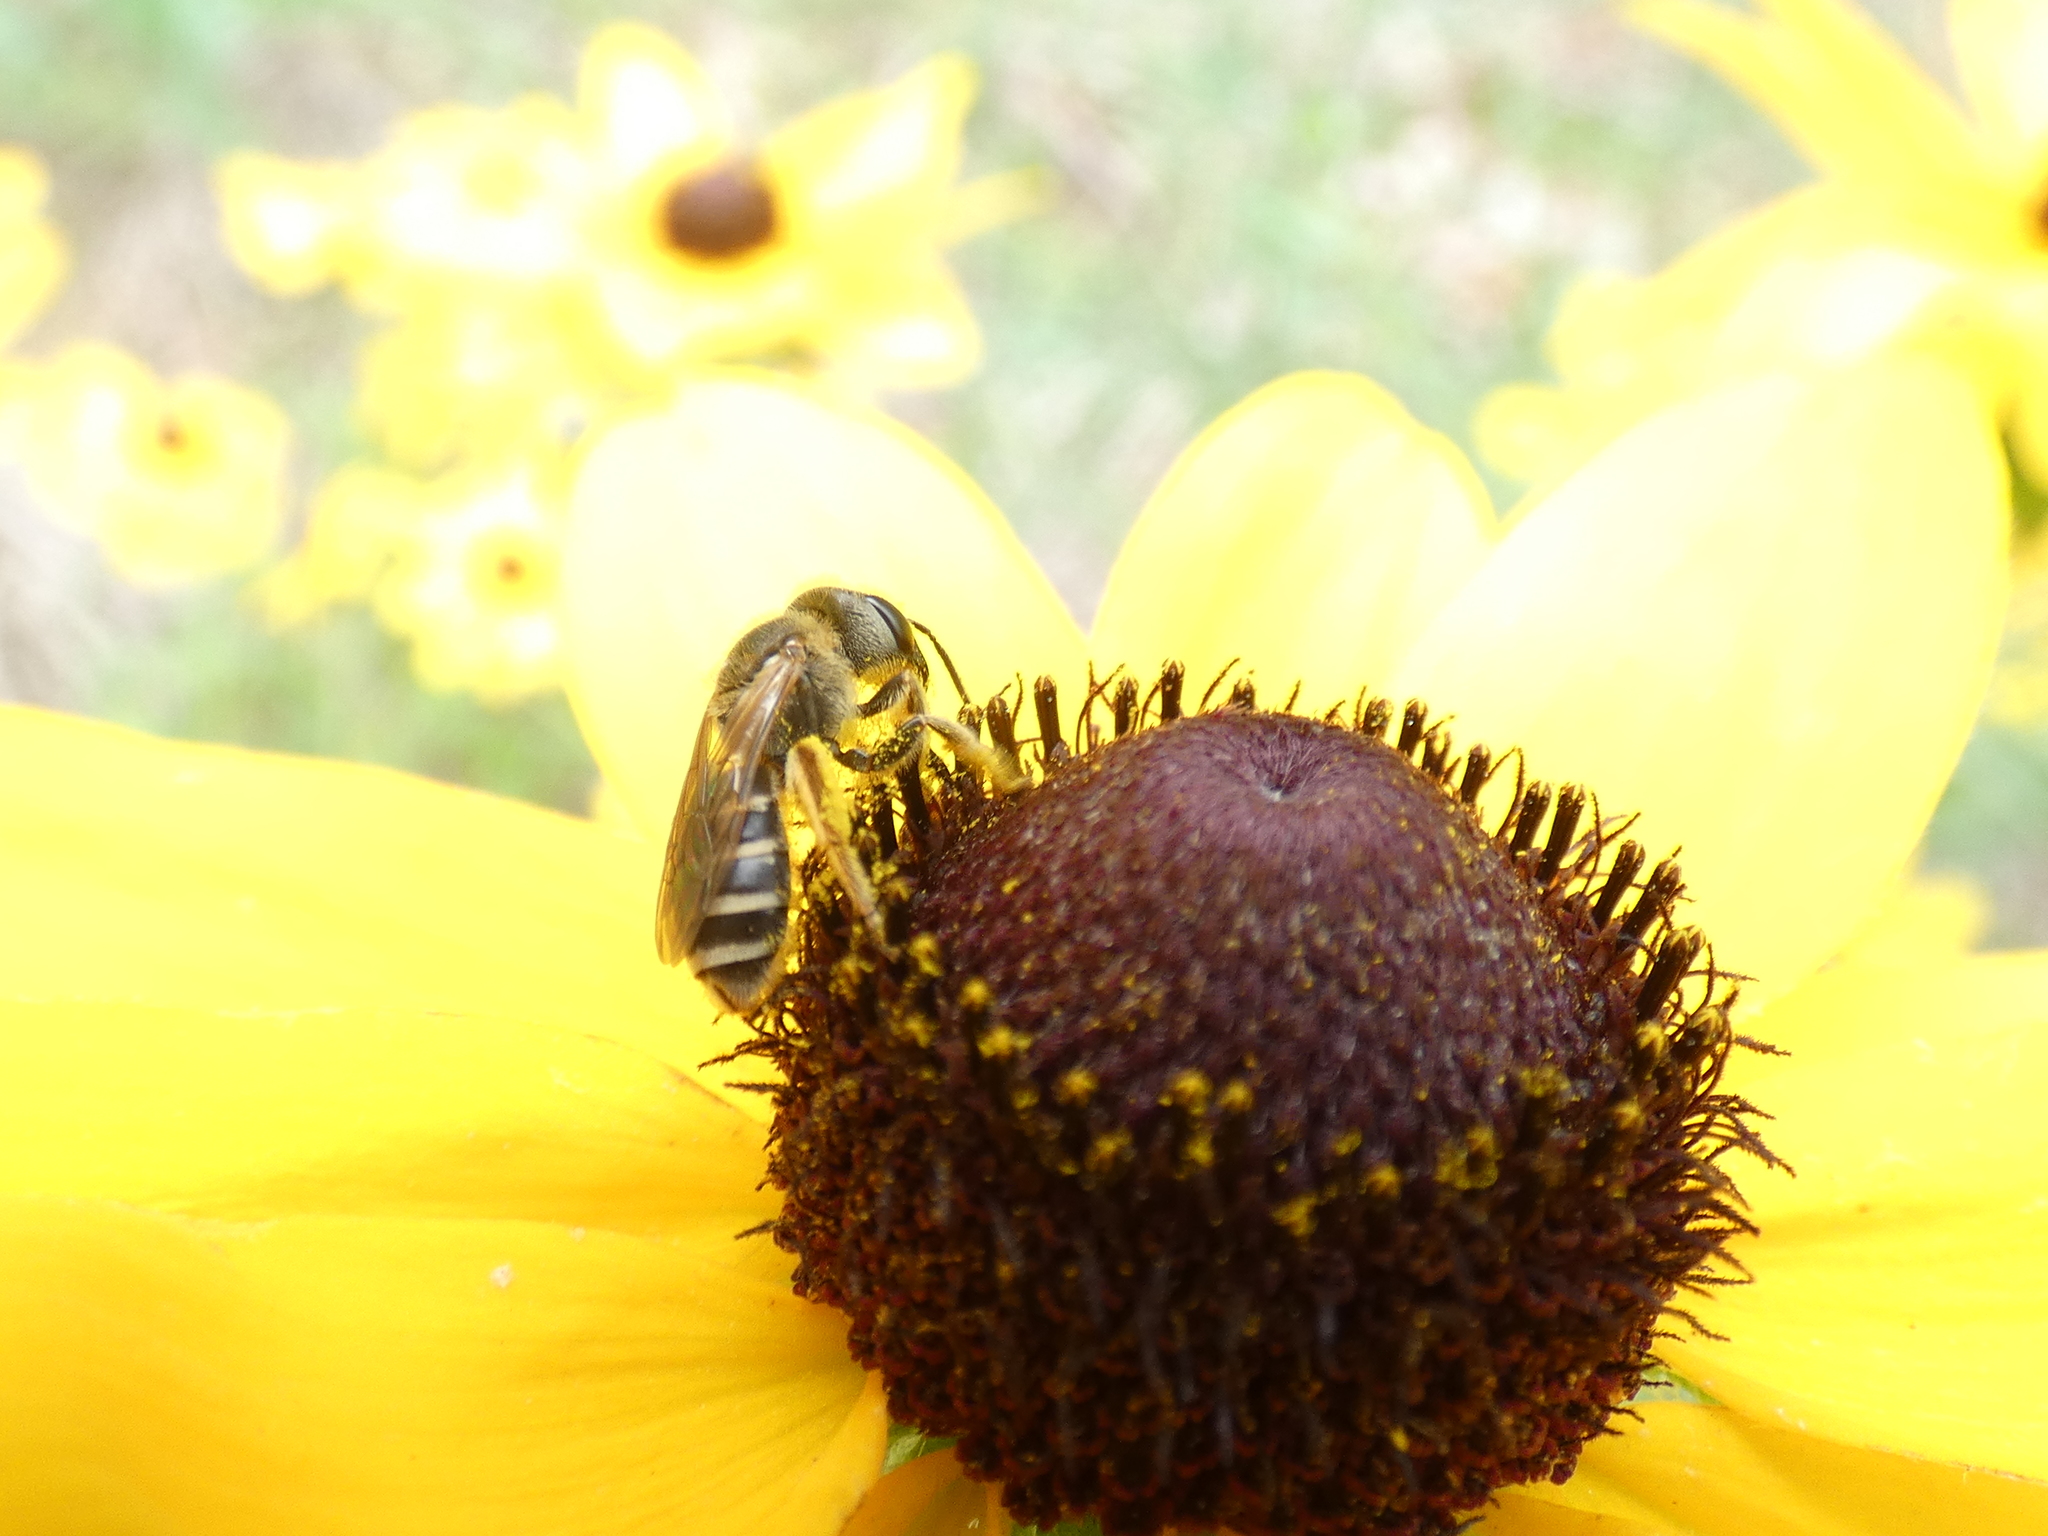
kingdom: Animalia
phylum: Arthropoda
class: Insecta
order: Hymenoptera
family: Halictidae
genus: Halictus
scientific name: Halictus ligatus
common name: Ligated furrow bee
